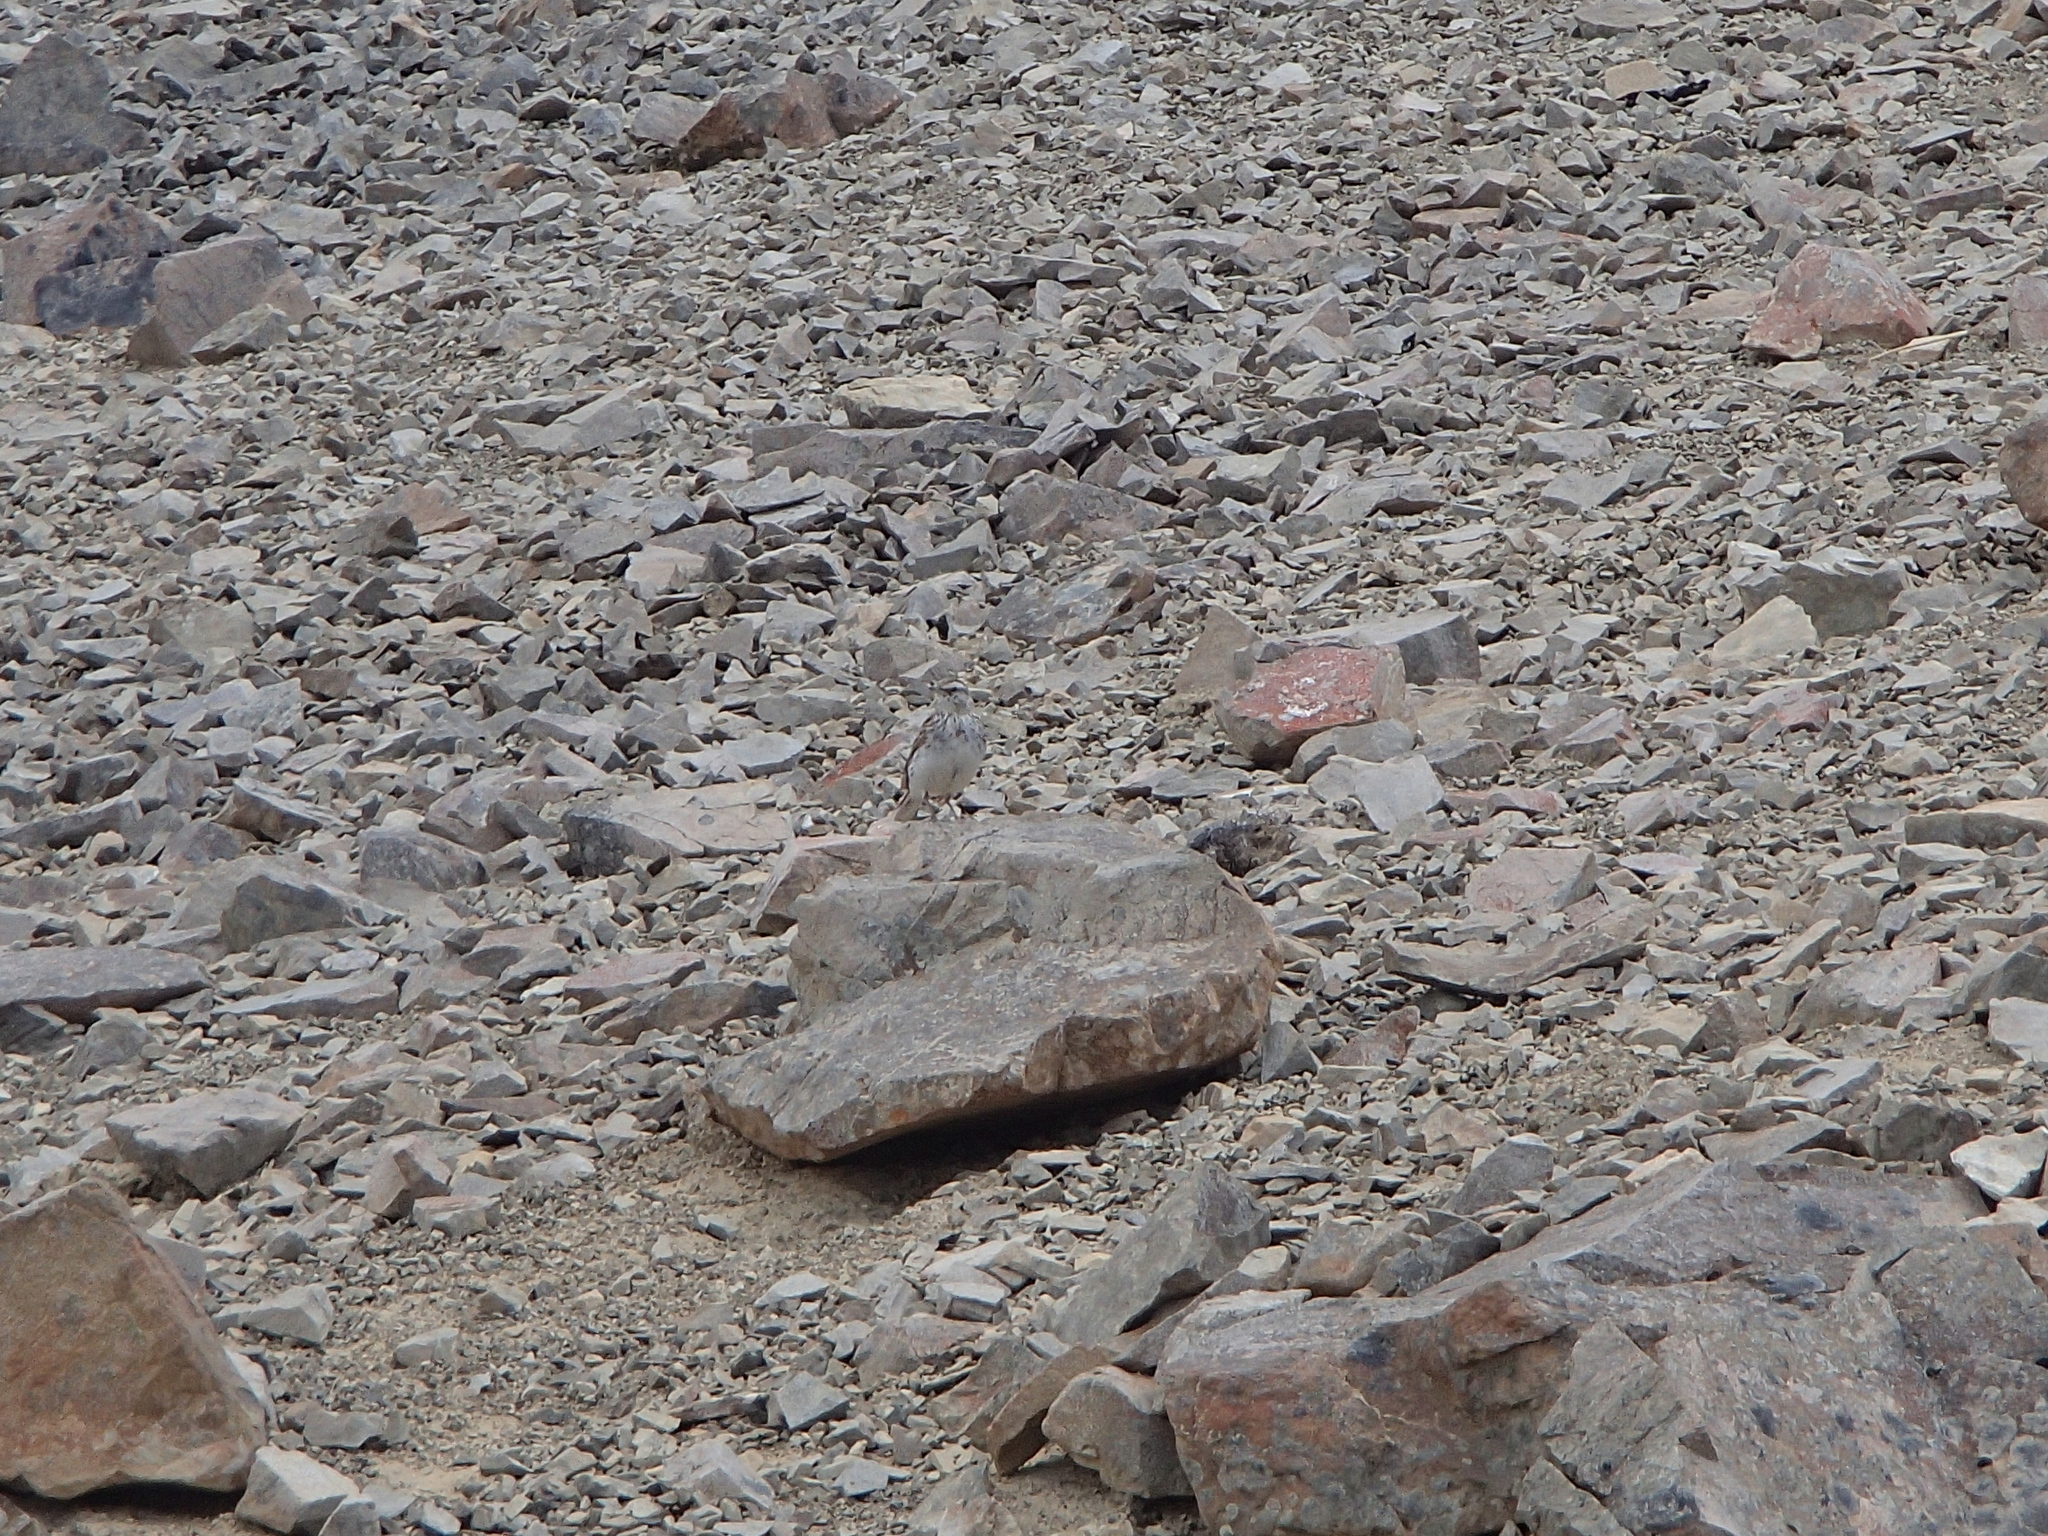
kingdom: Animalia
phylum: Chordata
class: Aves
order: Passeriformes
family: Motacillidae
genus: Anthus
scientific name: Anthus novaeseelandiae
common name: New zealand pipit
